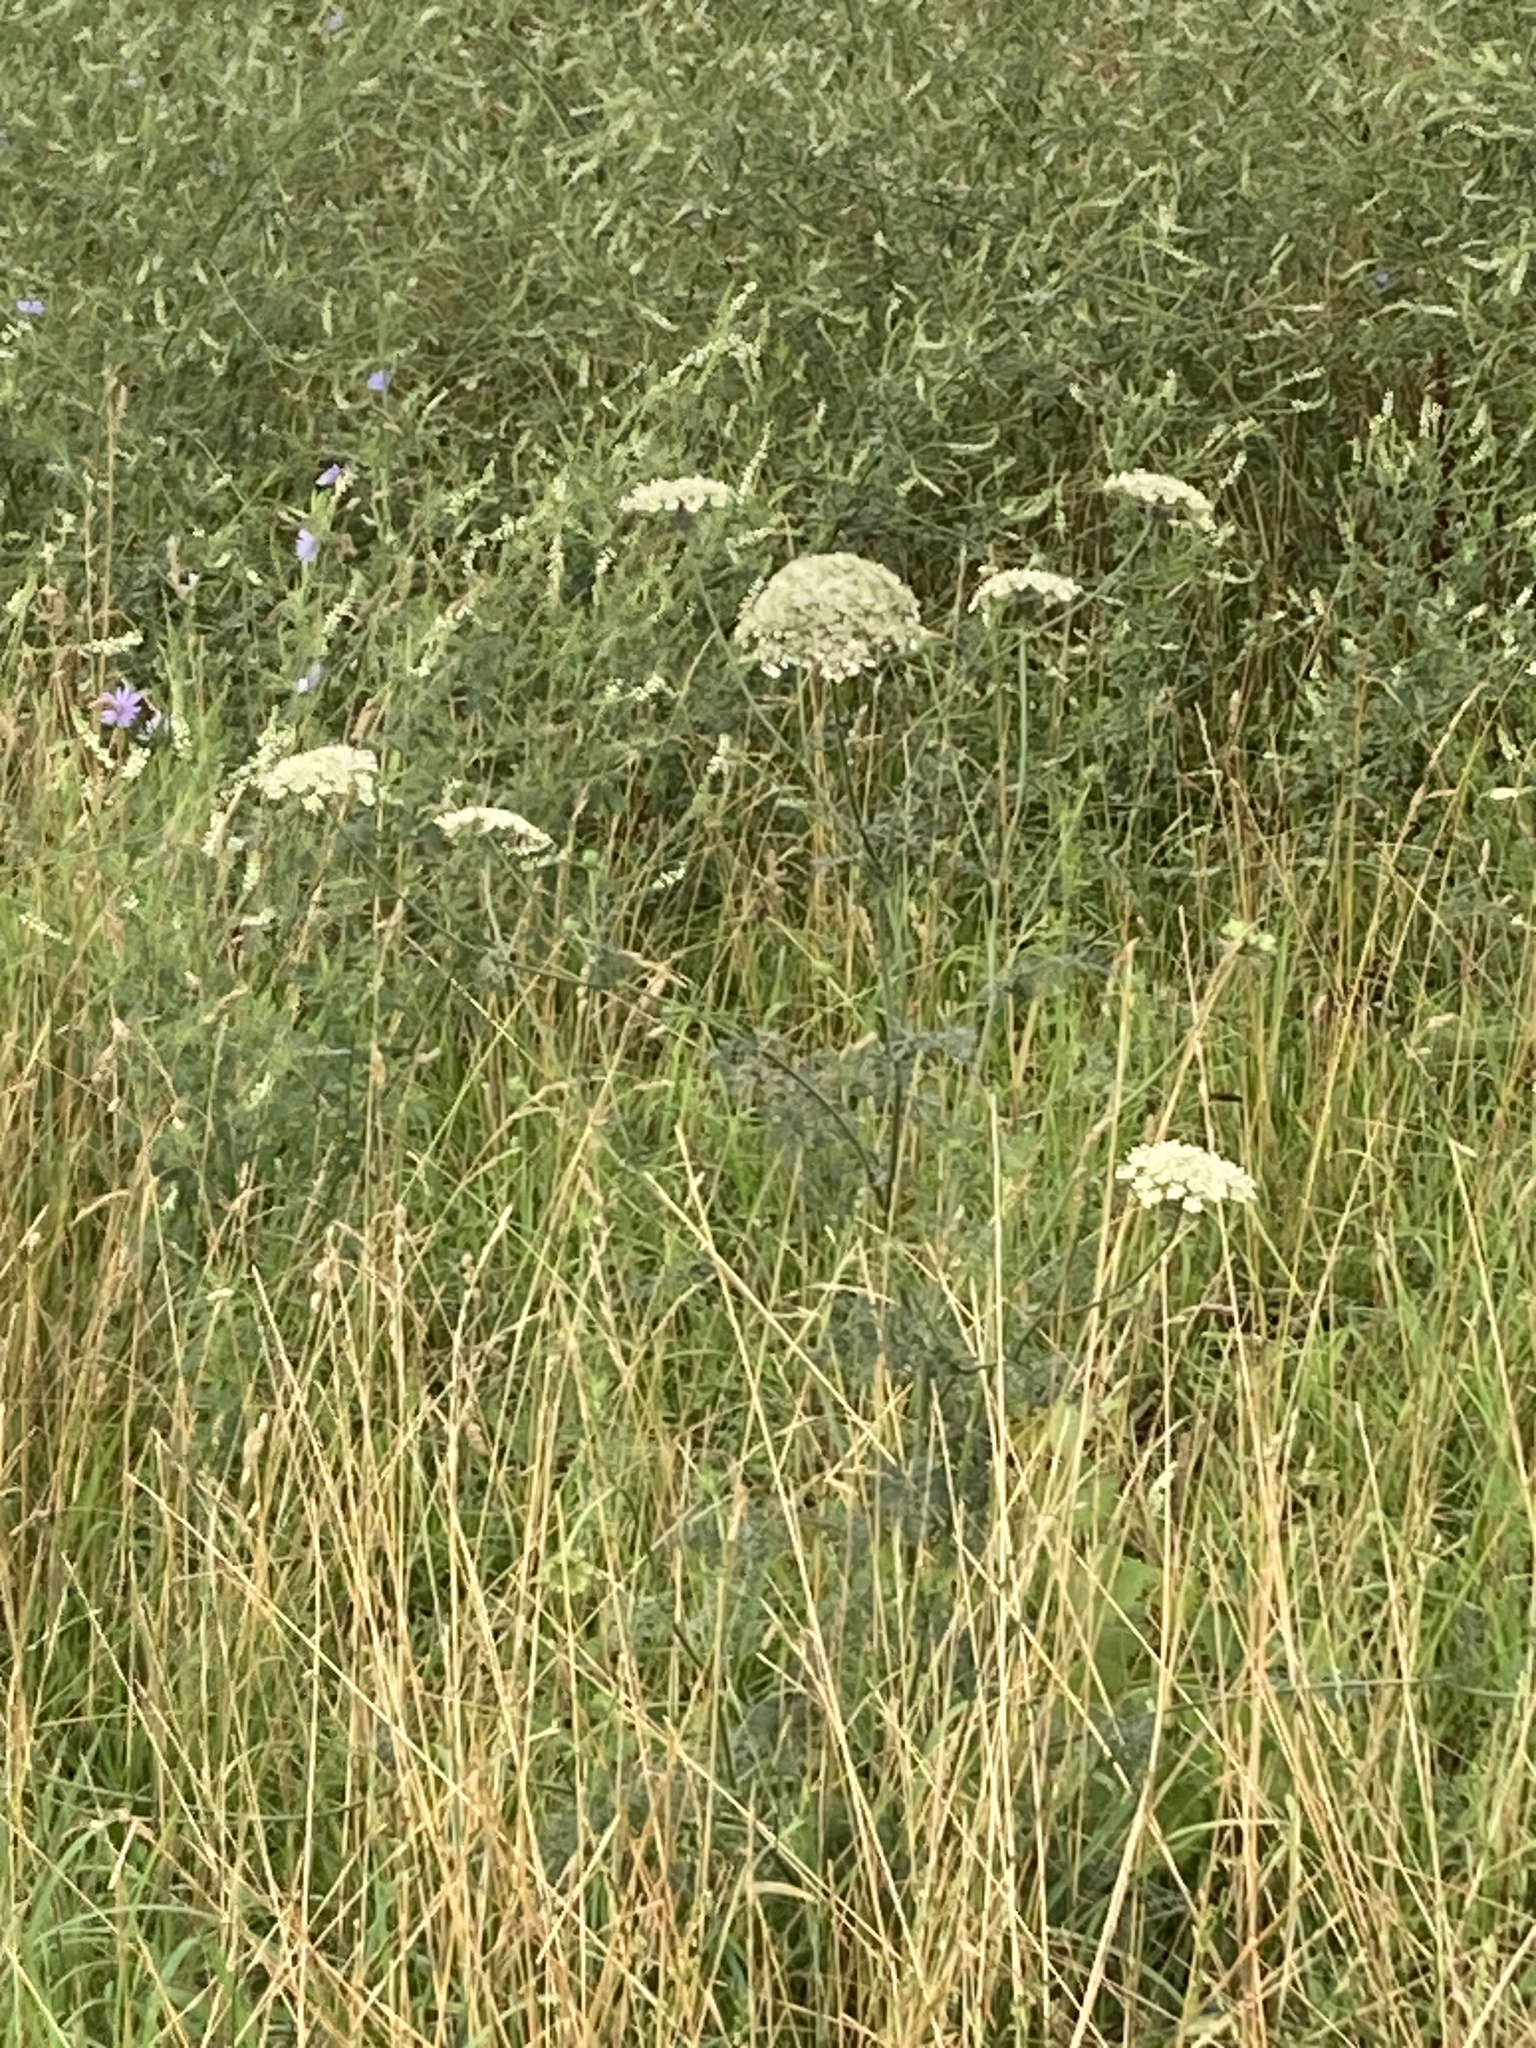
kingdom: Plantae
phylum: Tracheophyta
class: Magnoliopsida
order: Apiales
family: Apiaceae
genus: Daucus
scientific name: Daucus carota
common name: Wild carrot
